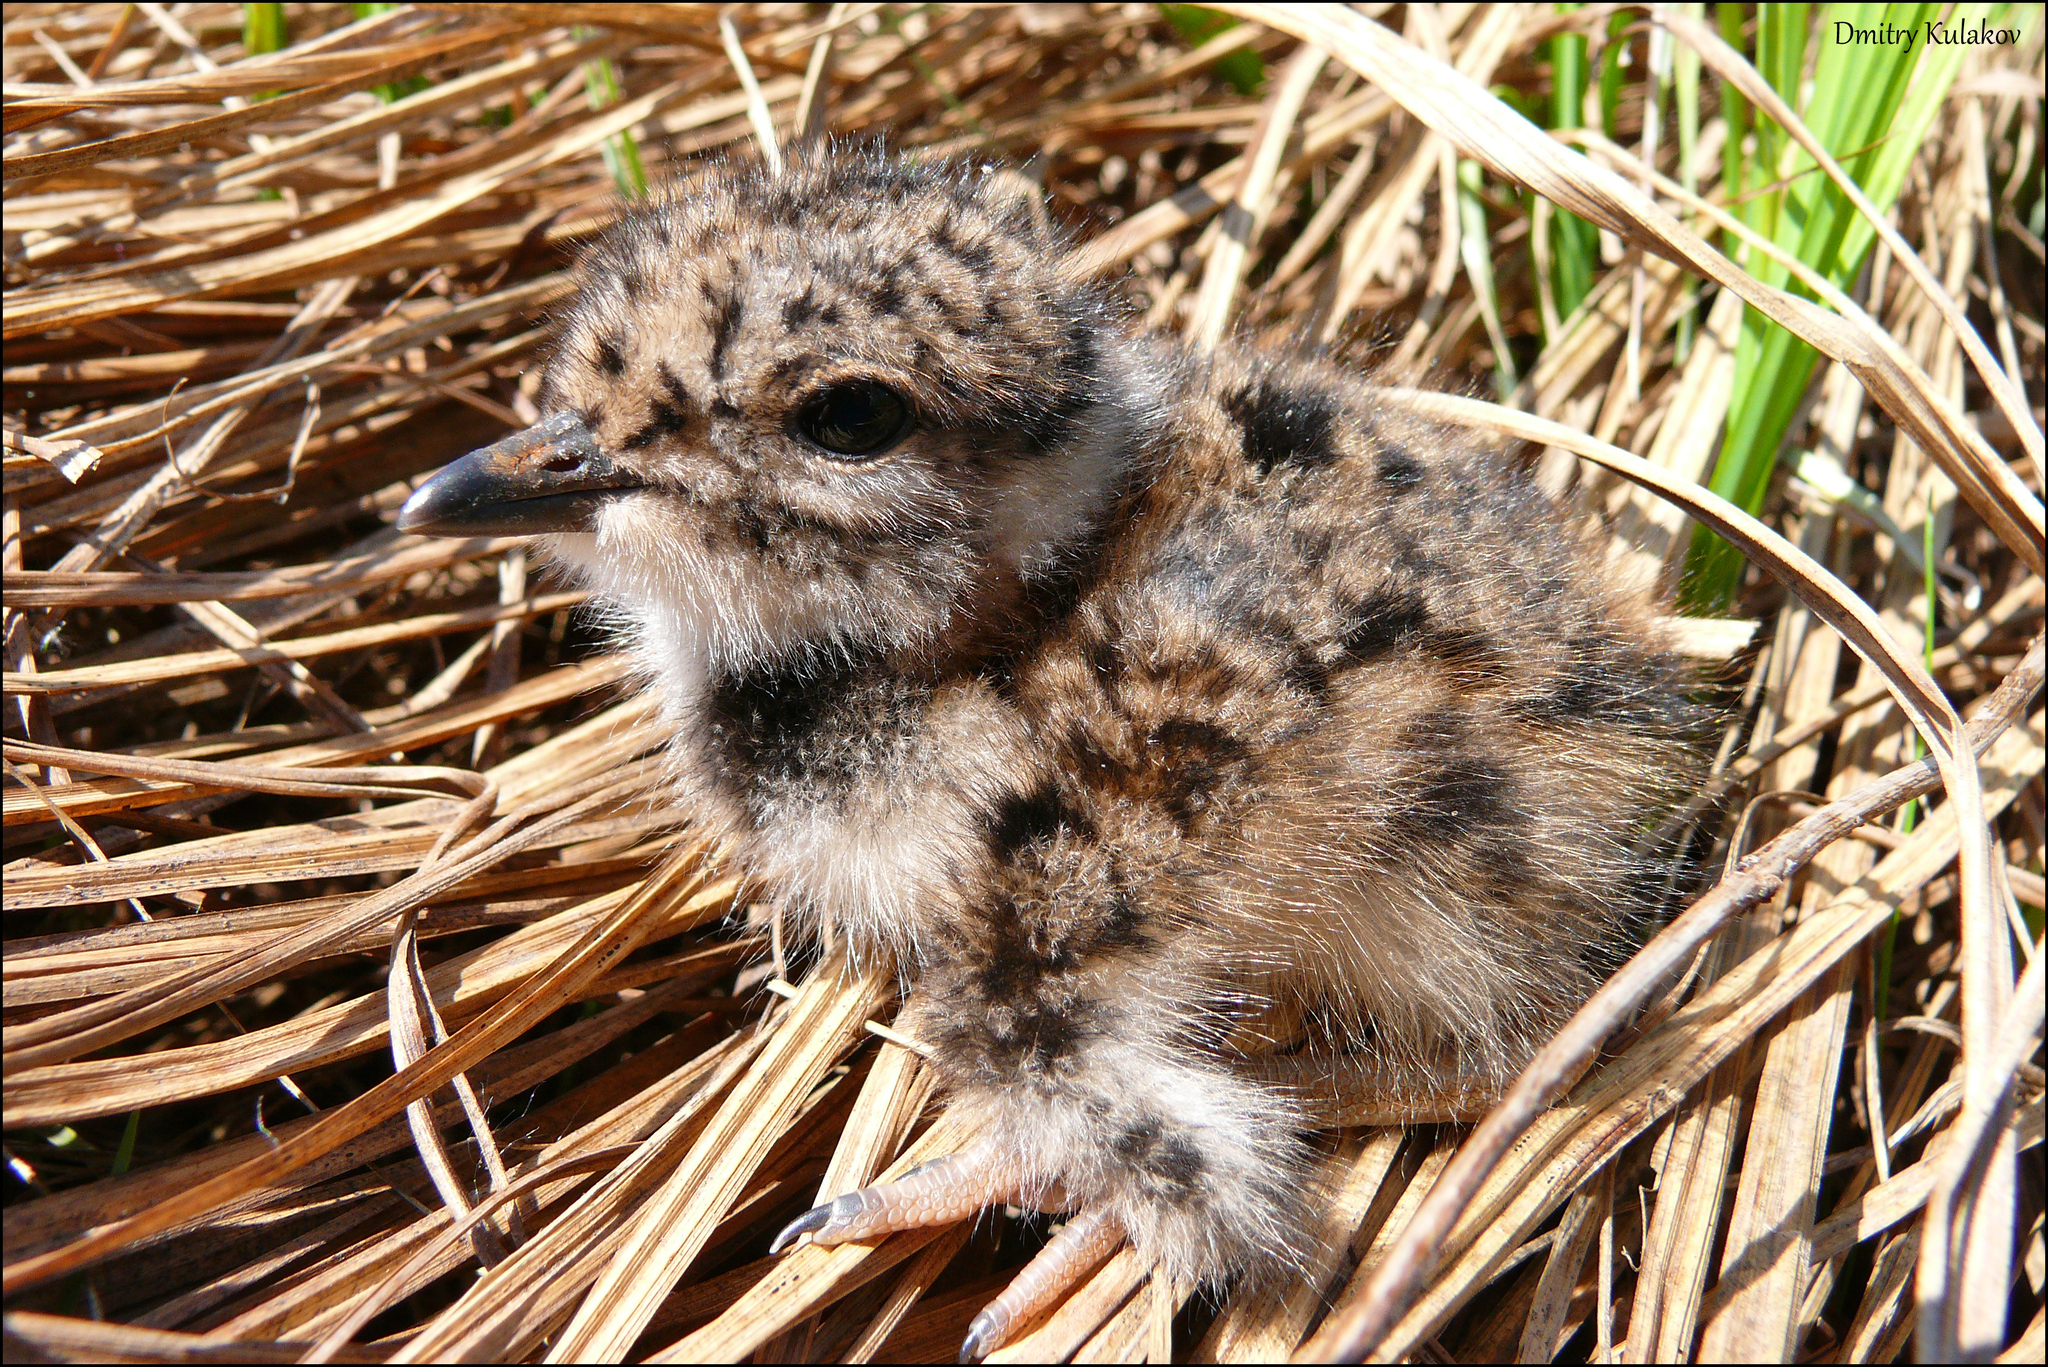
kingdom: Animalia
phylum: Chordata
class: Aves
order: Charadriiformes
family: Charadriidae
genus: Vanellus
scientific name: Vanellus vanellus
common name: Northern lapwing
